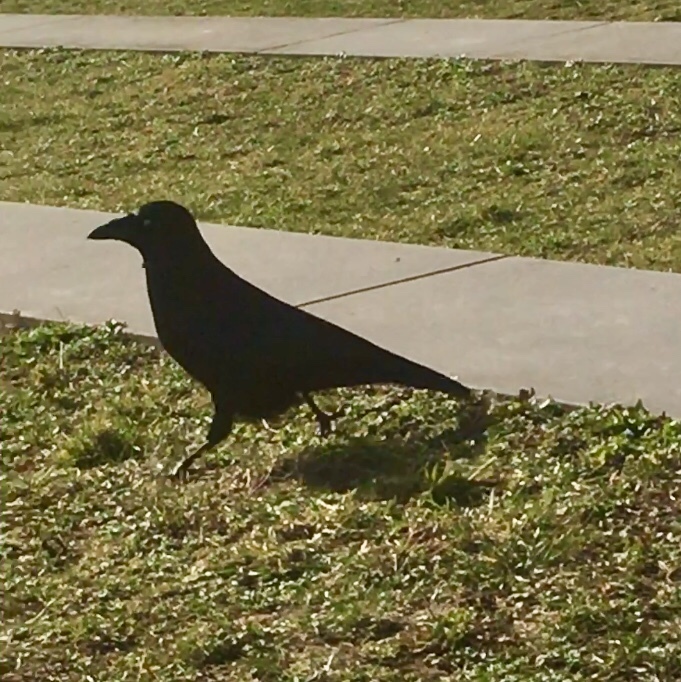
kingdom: Animalia
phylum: Chordata
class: Aves
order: Passeriformes
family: Corvidae
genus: Corvus
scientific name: Corvus corone
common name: Carrion crow
